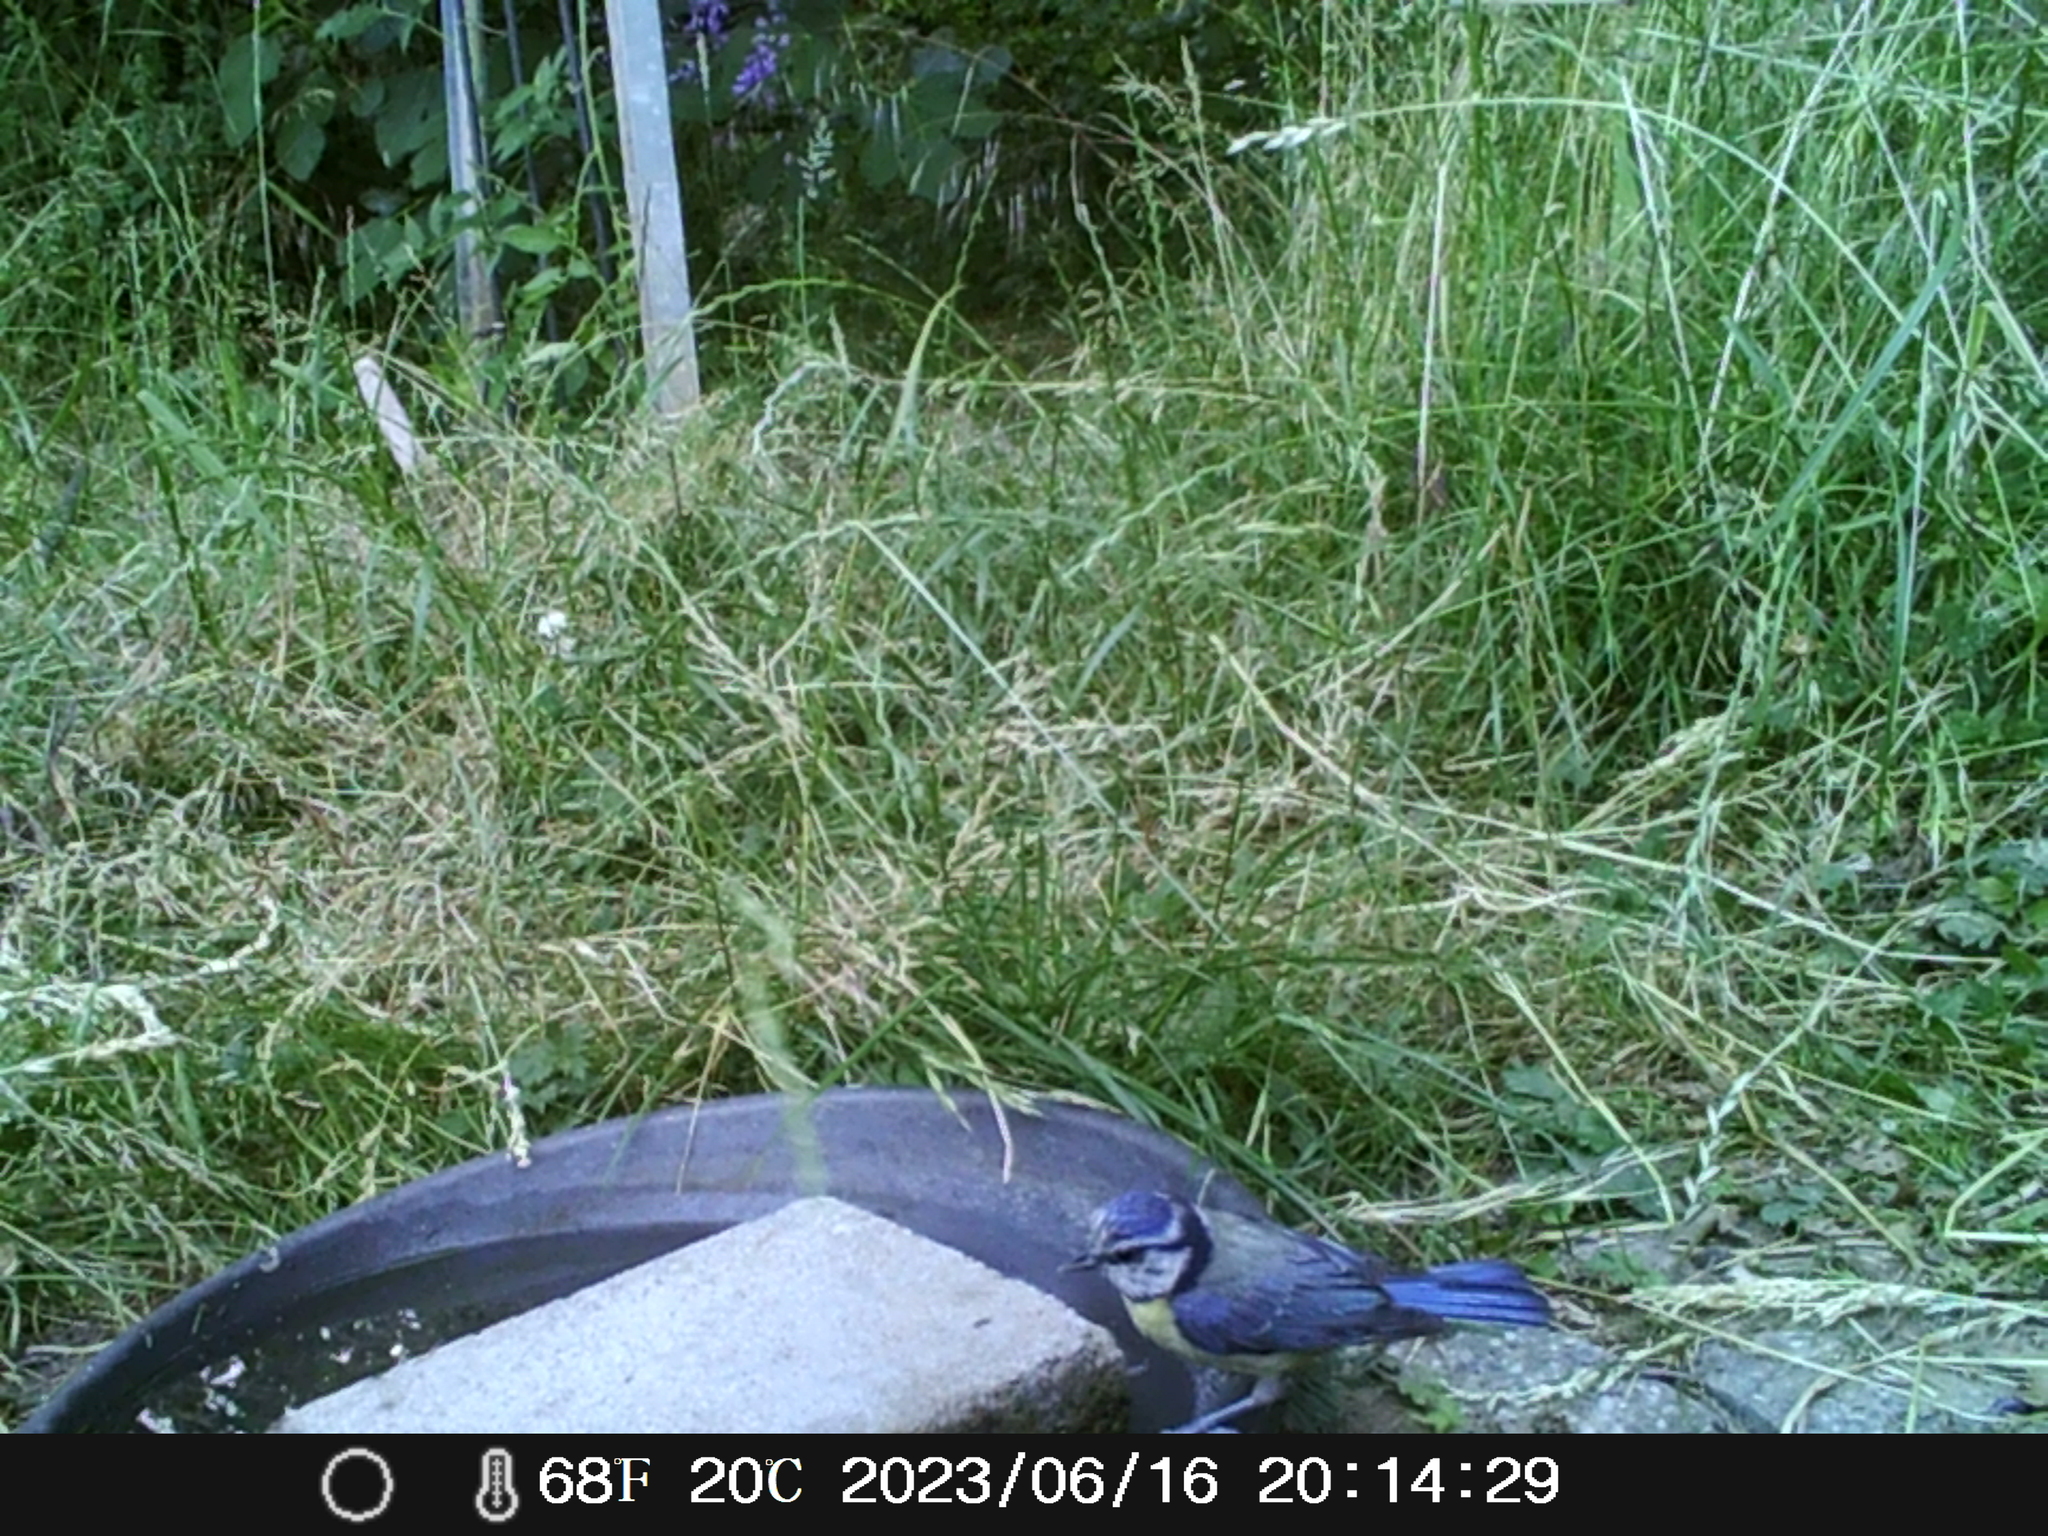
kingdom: Animalia
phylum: Chordata
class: Aves
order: Passeriformes
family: Paridae
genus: Cyanistes
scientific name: Cyanistes caeruleus
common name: Eurasian blue tit
